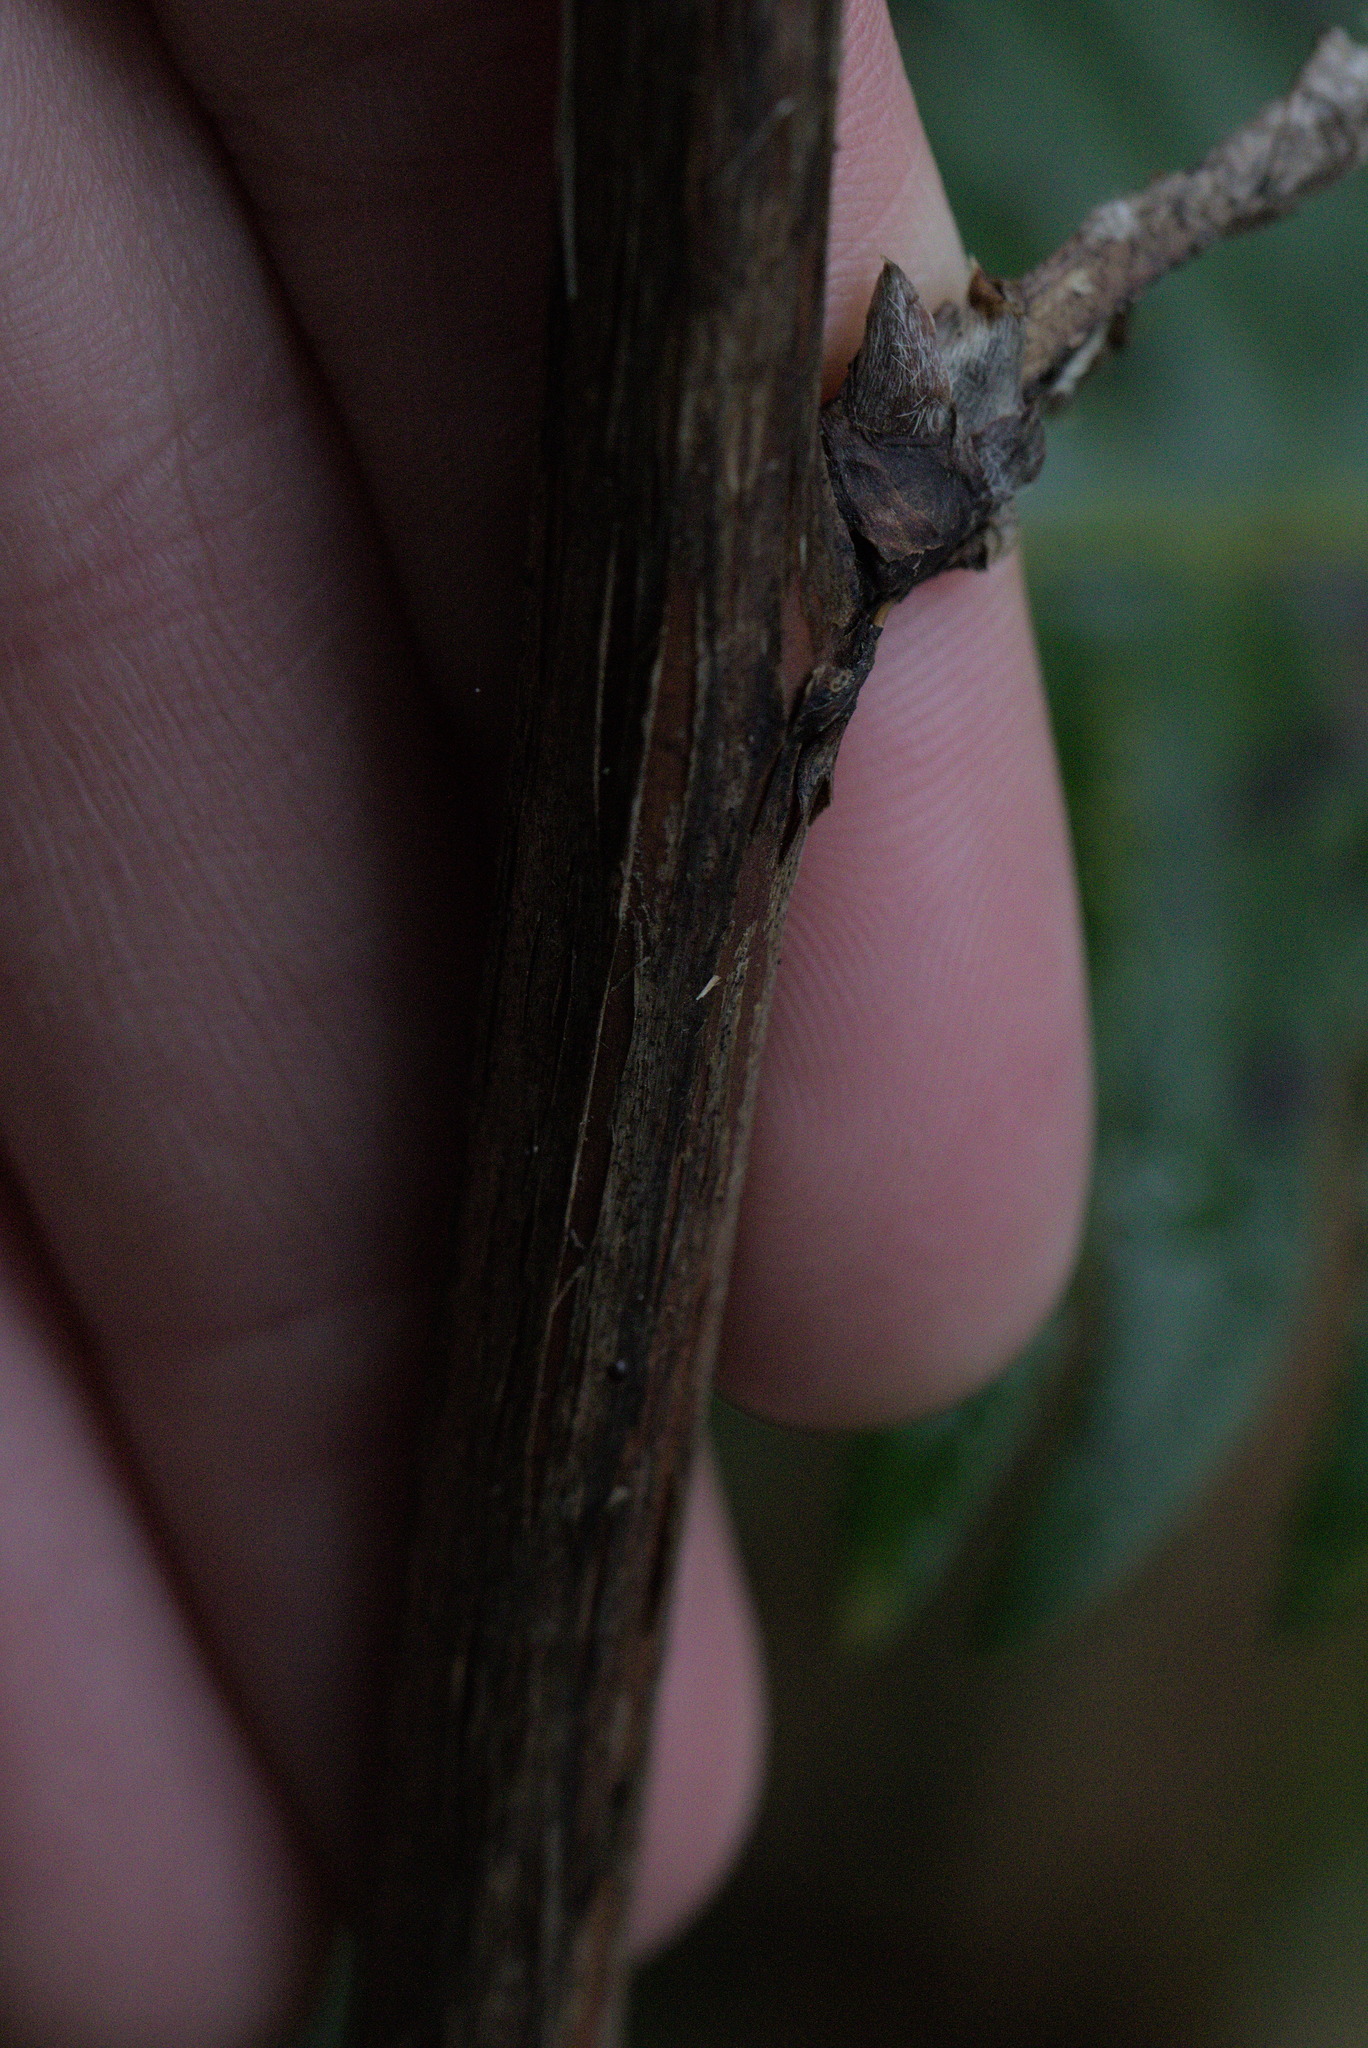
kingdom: Plantae
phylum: Tracheophyta
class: Magnoliopsida
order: Rosales
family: Rosaceae
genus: Rubus
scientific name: Rubus spectabilis
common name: Salmonberry
